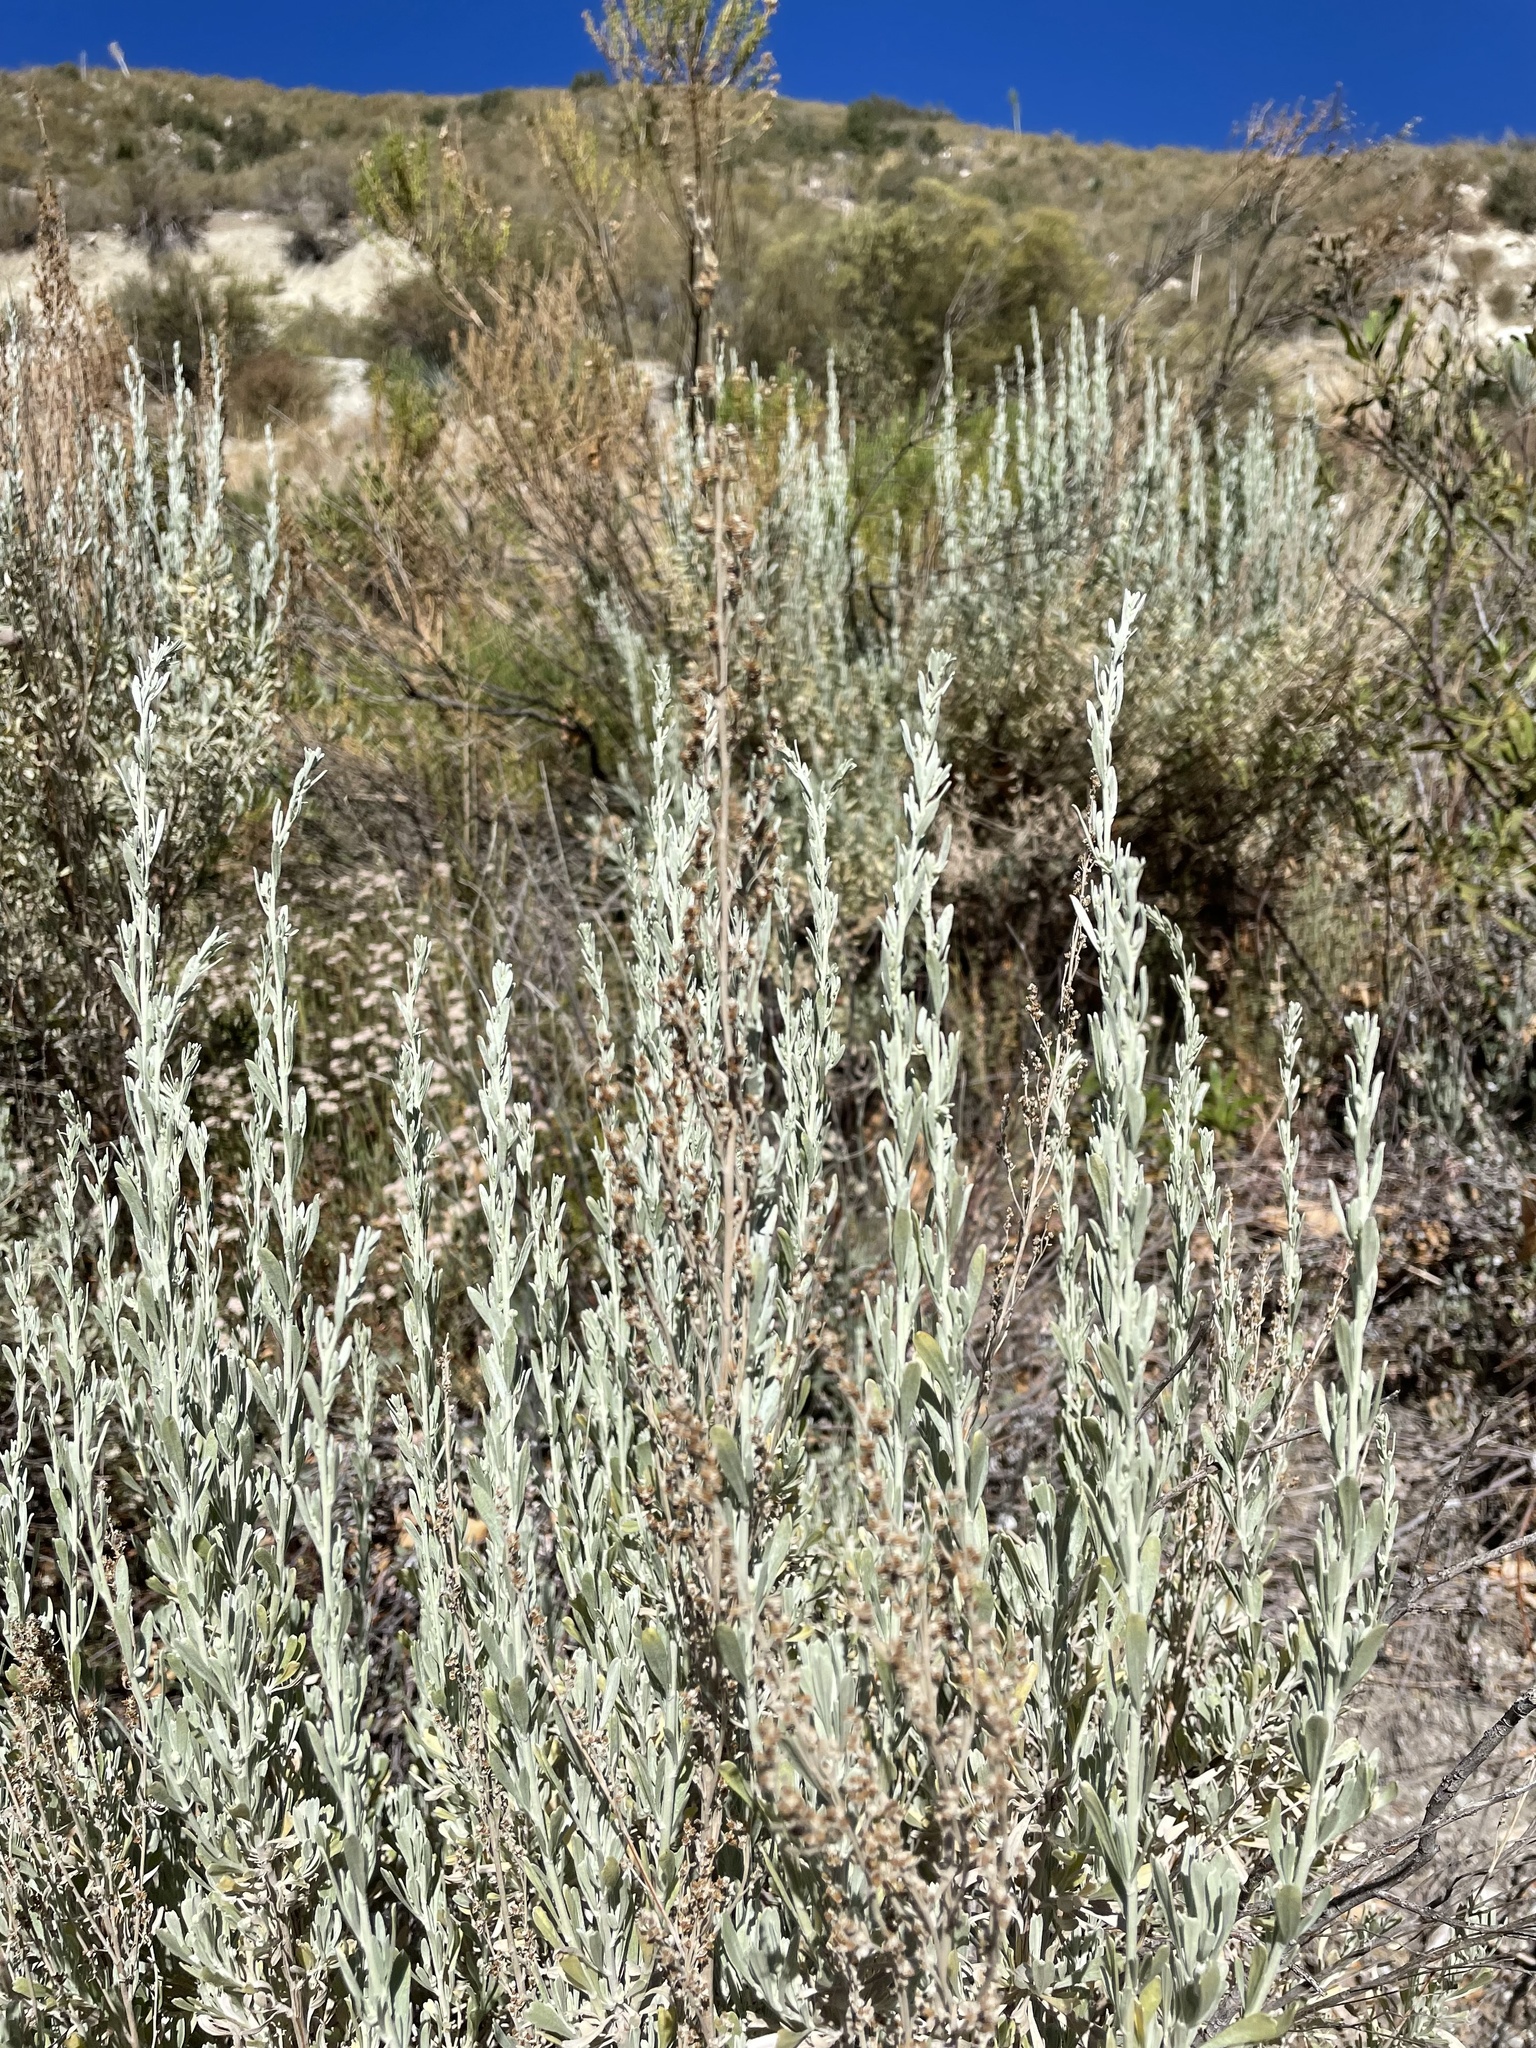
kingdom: Plantae
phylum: Tracheophyta
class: Magnoliopsida
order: Asterales
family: Asteraceae
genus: Artemisia
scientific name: Artemisia tridentata
